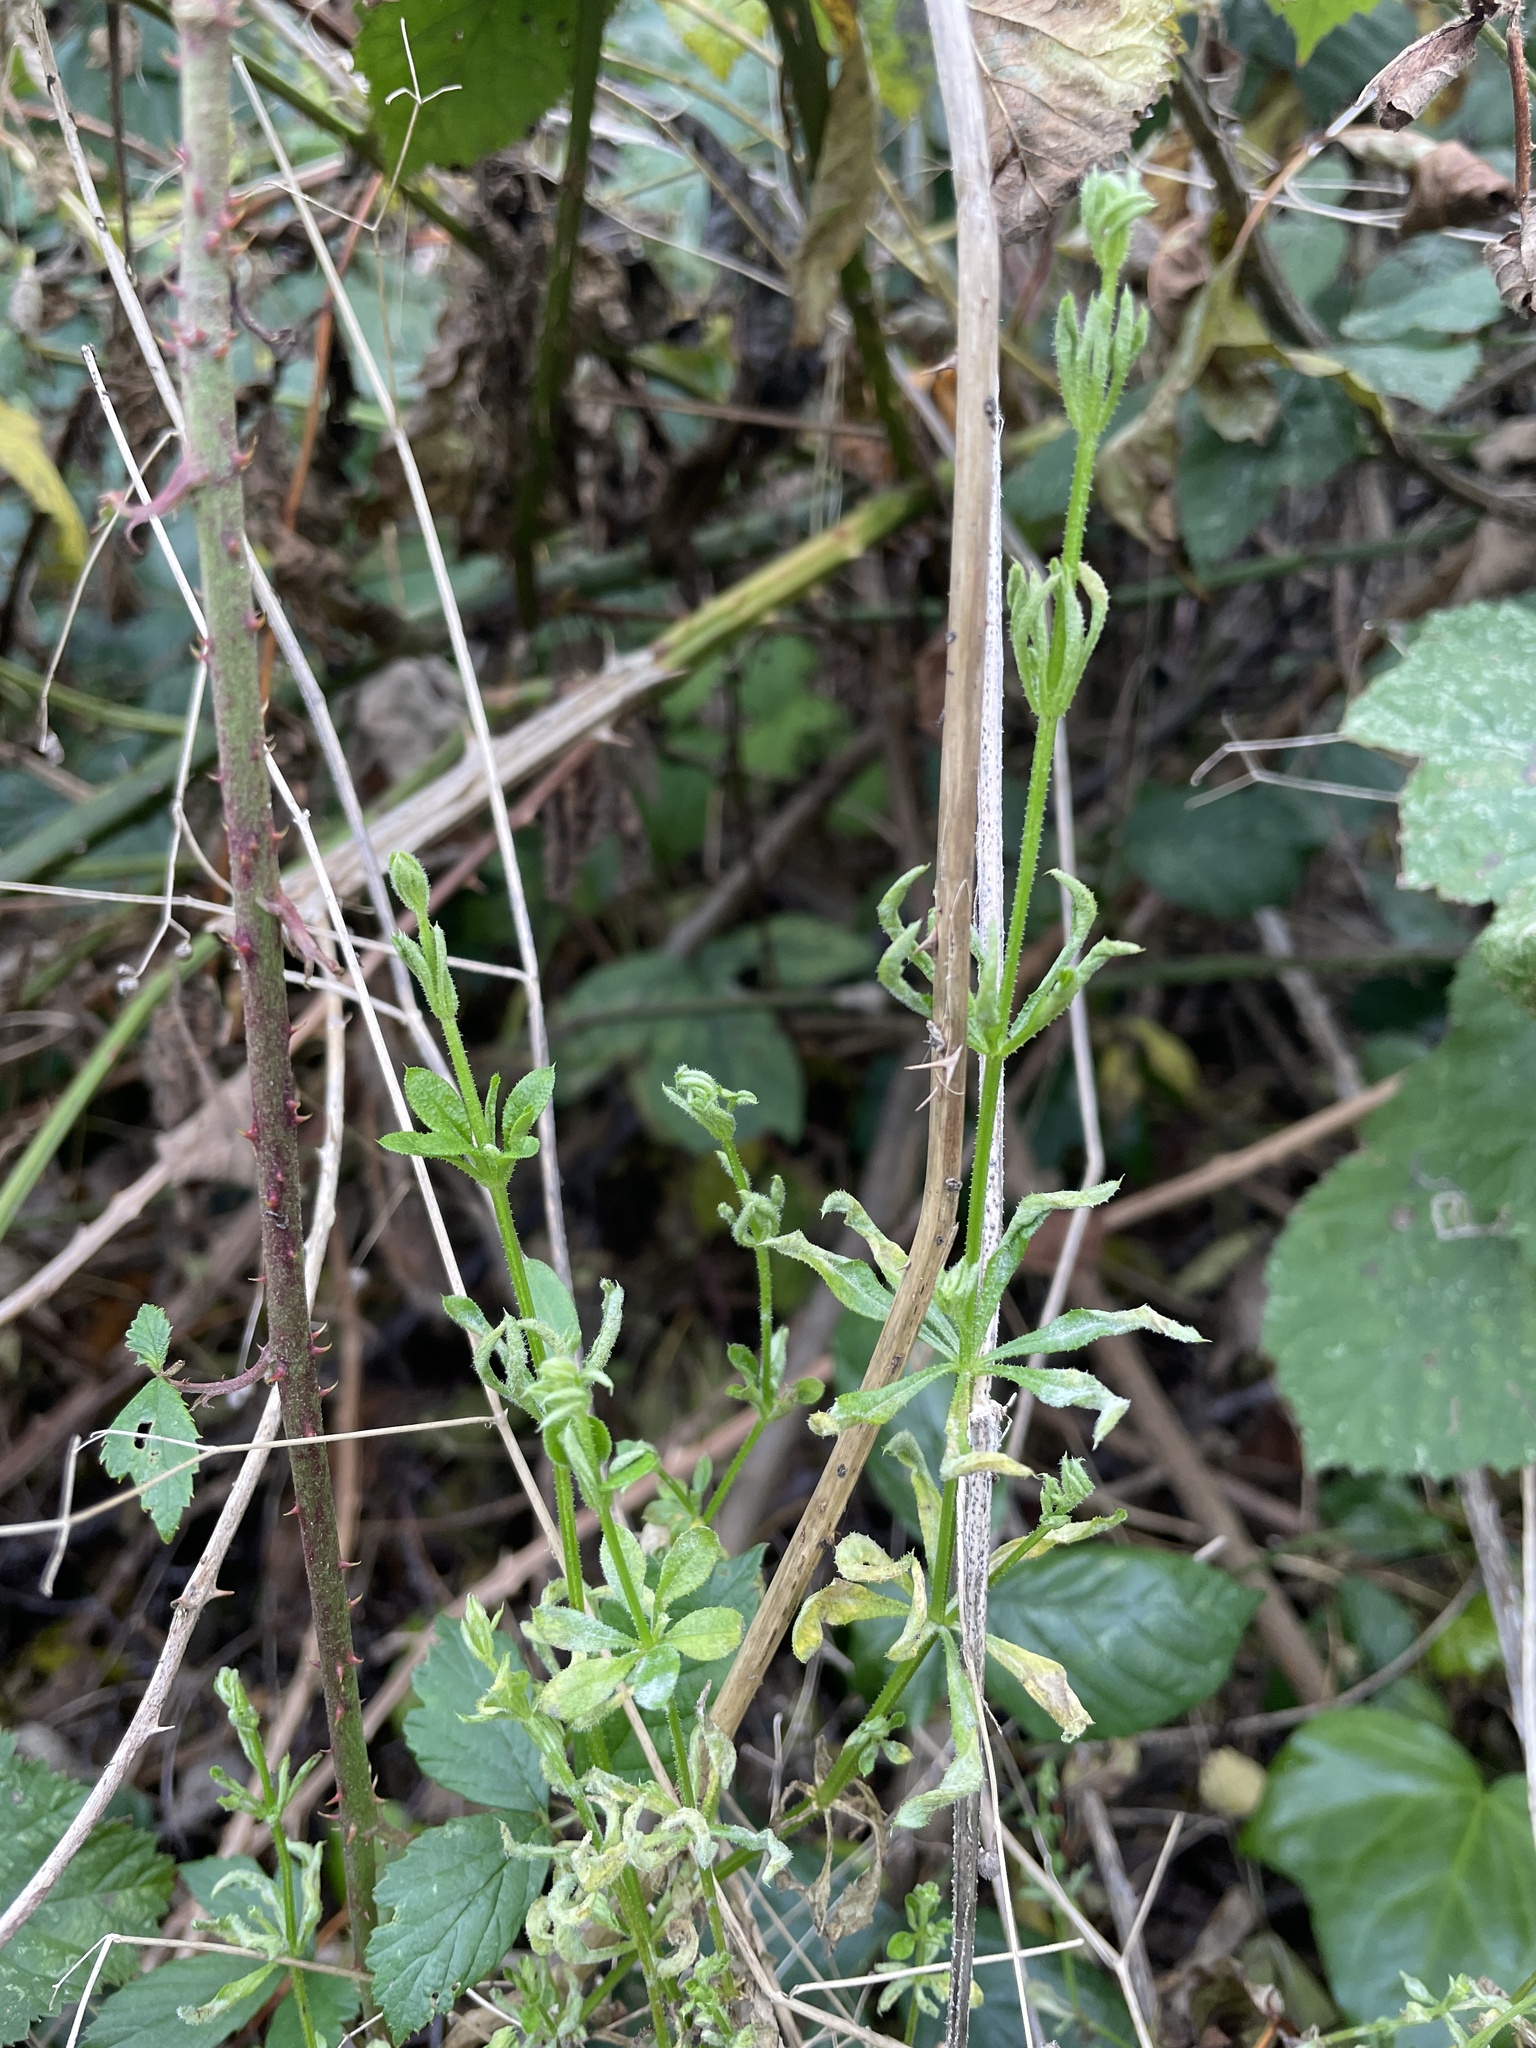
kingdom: Plantae
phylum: Tracheophyta
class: Magnoliopsida
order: Gentianales
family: Rubiaceae
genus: Galium
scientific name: Galium aparine
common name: Cleavers
